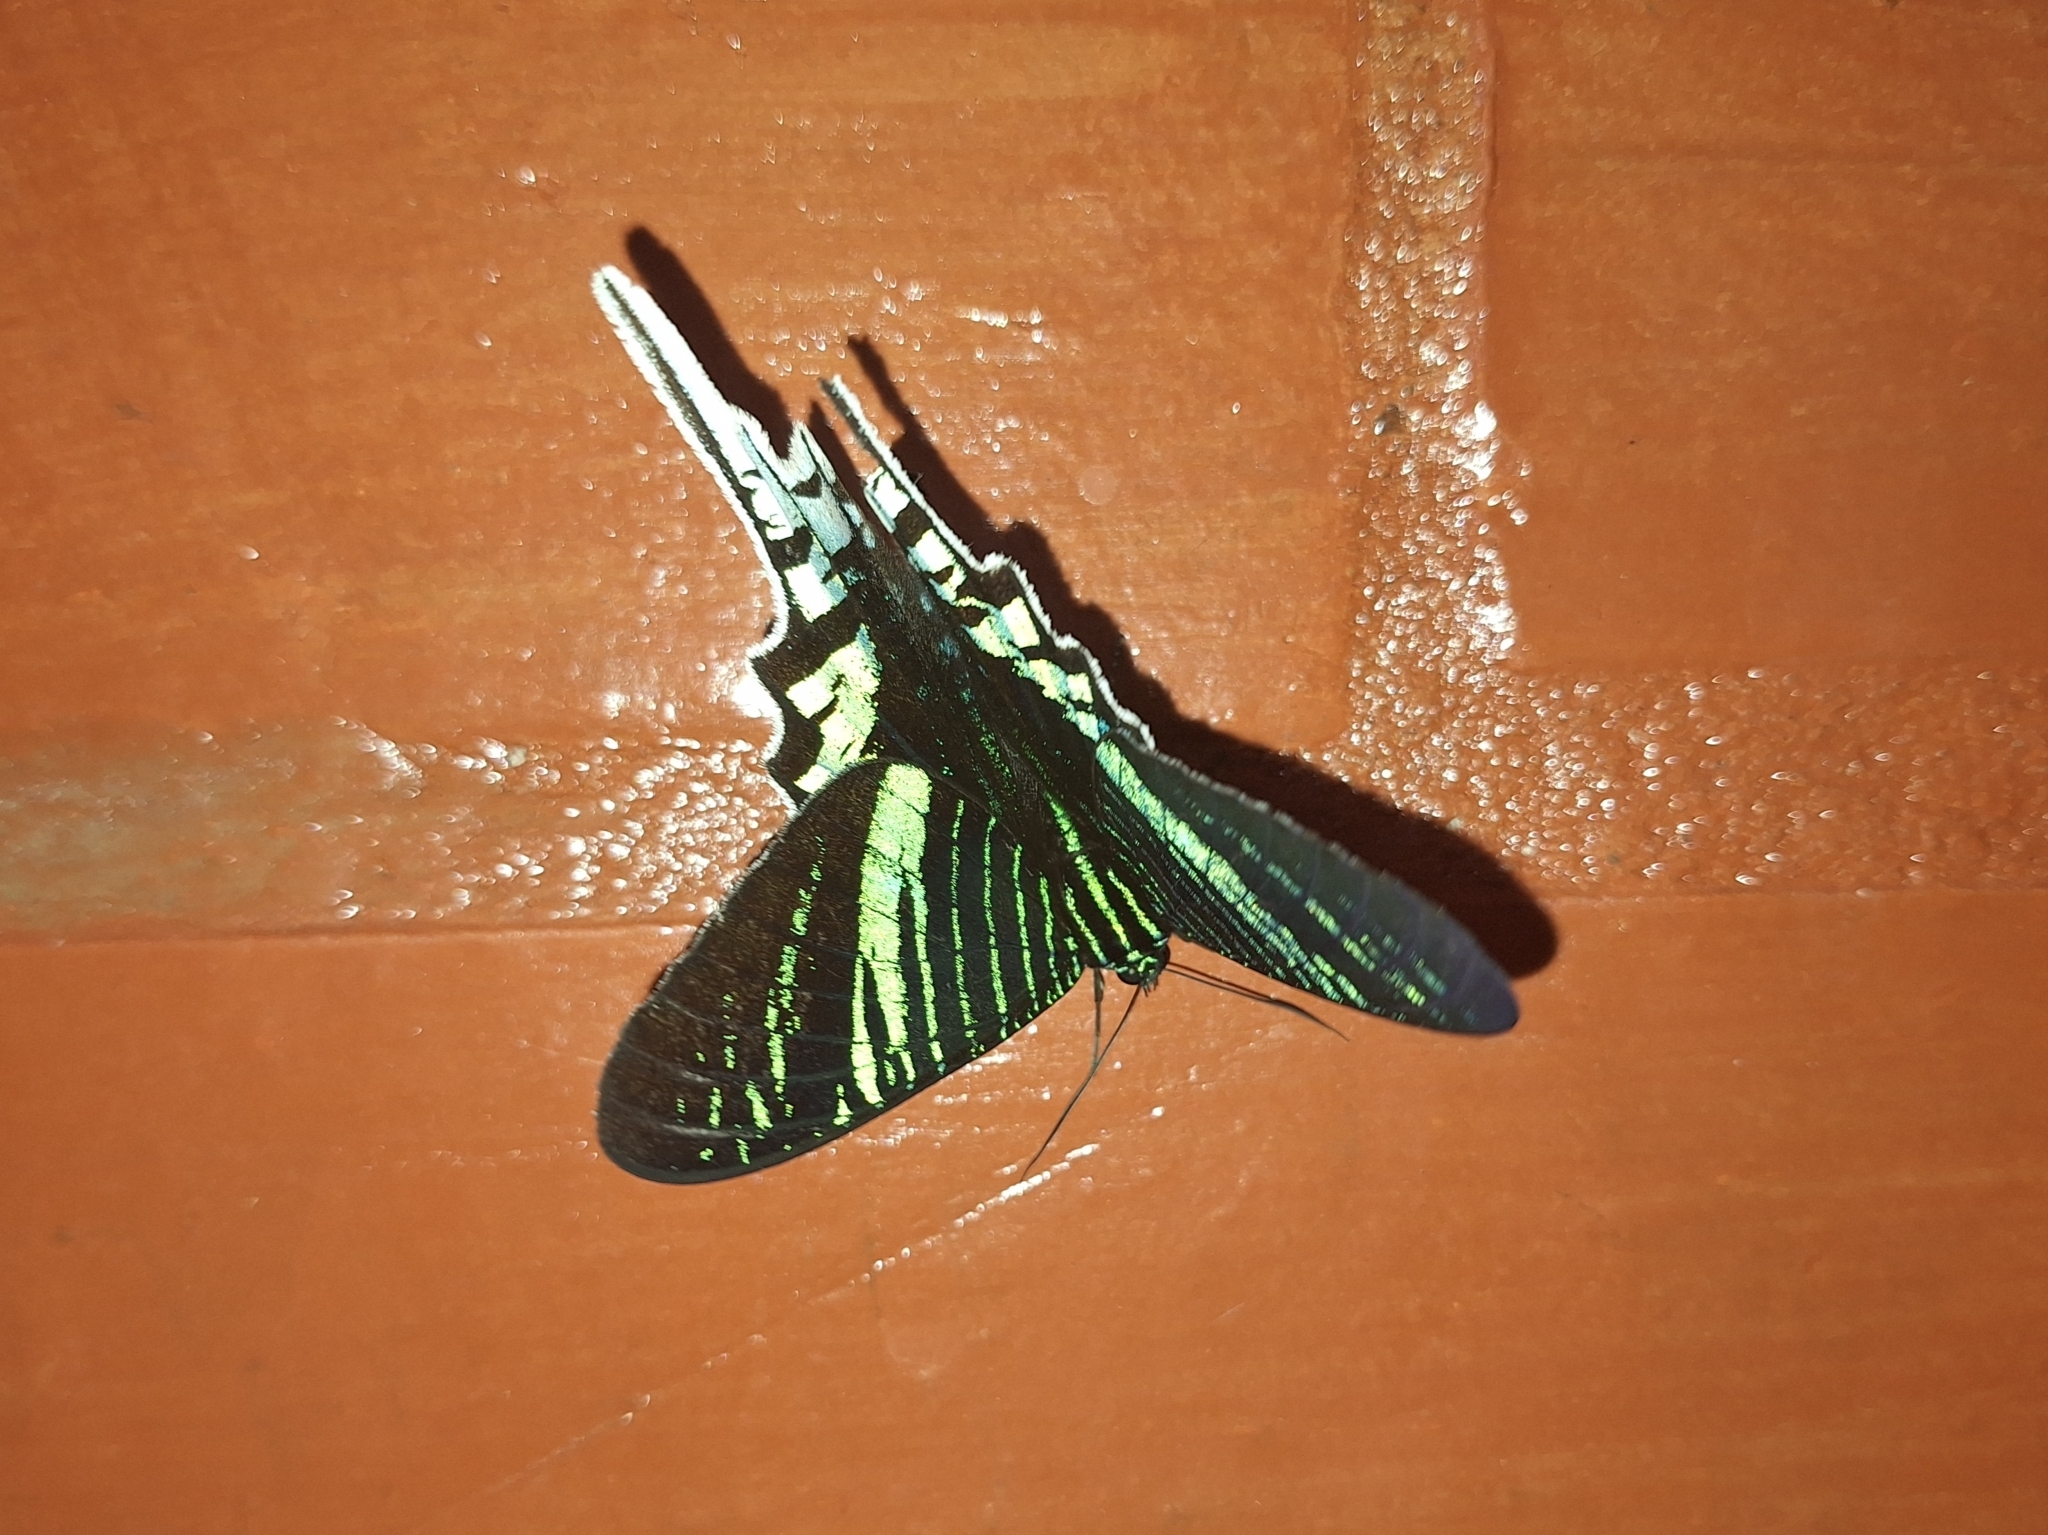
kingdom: Animalia
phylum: Arthropoda
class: Insecta
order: Lepidoptera
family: Uraniidae
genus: Urania
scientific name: Urania leilus
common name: Peacock moth
